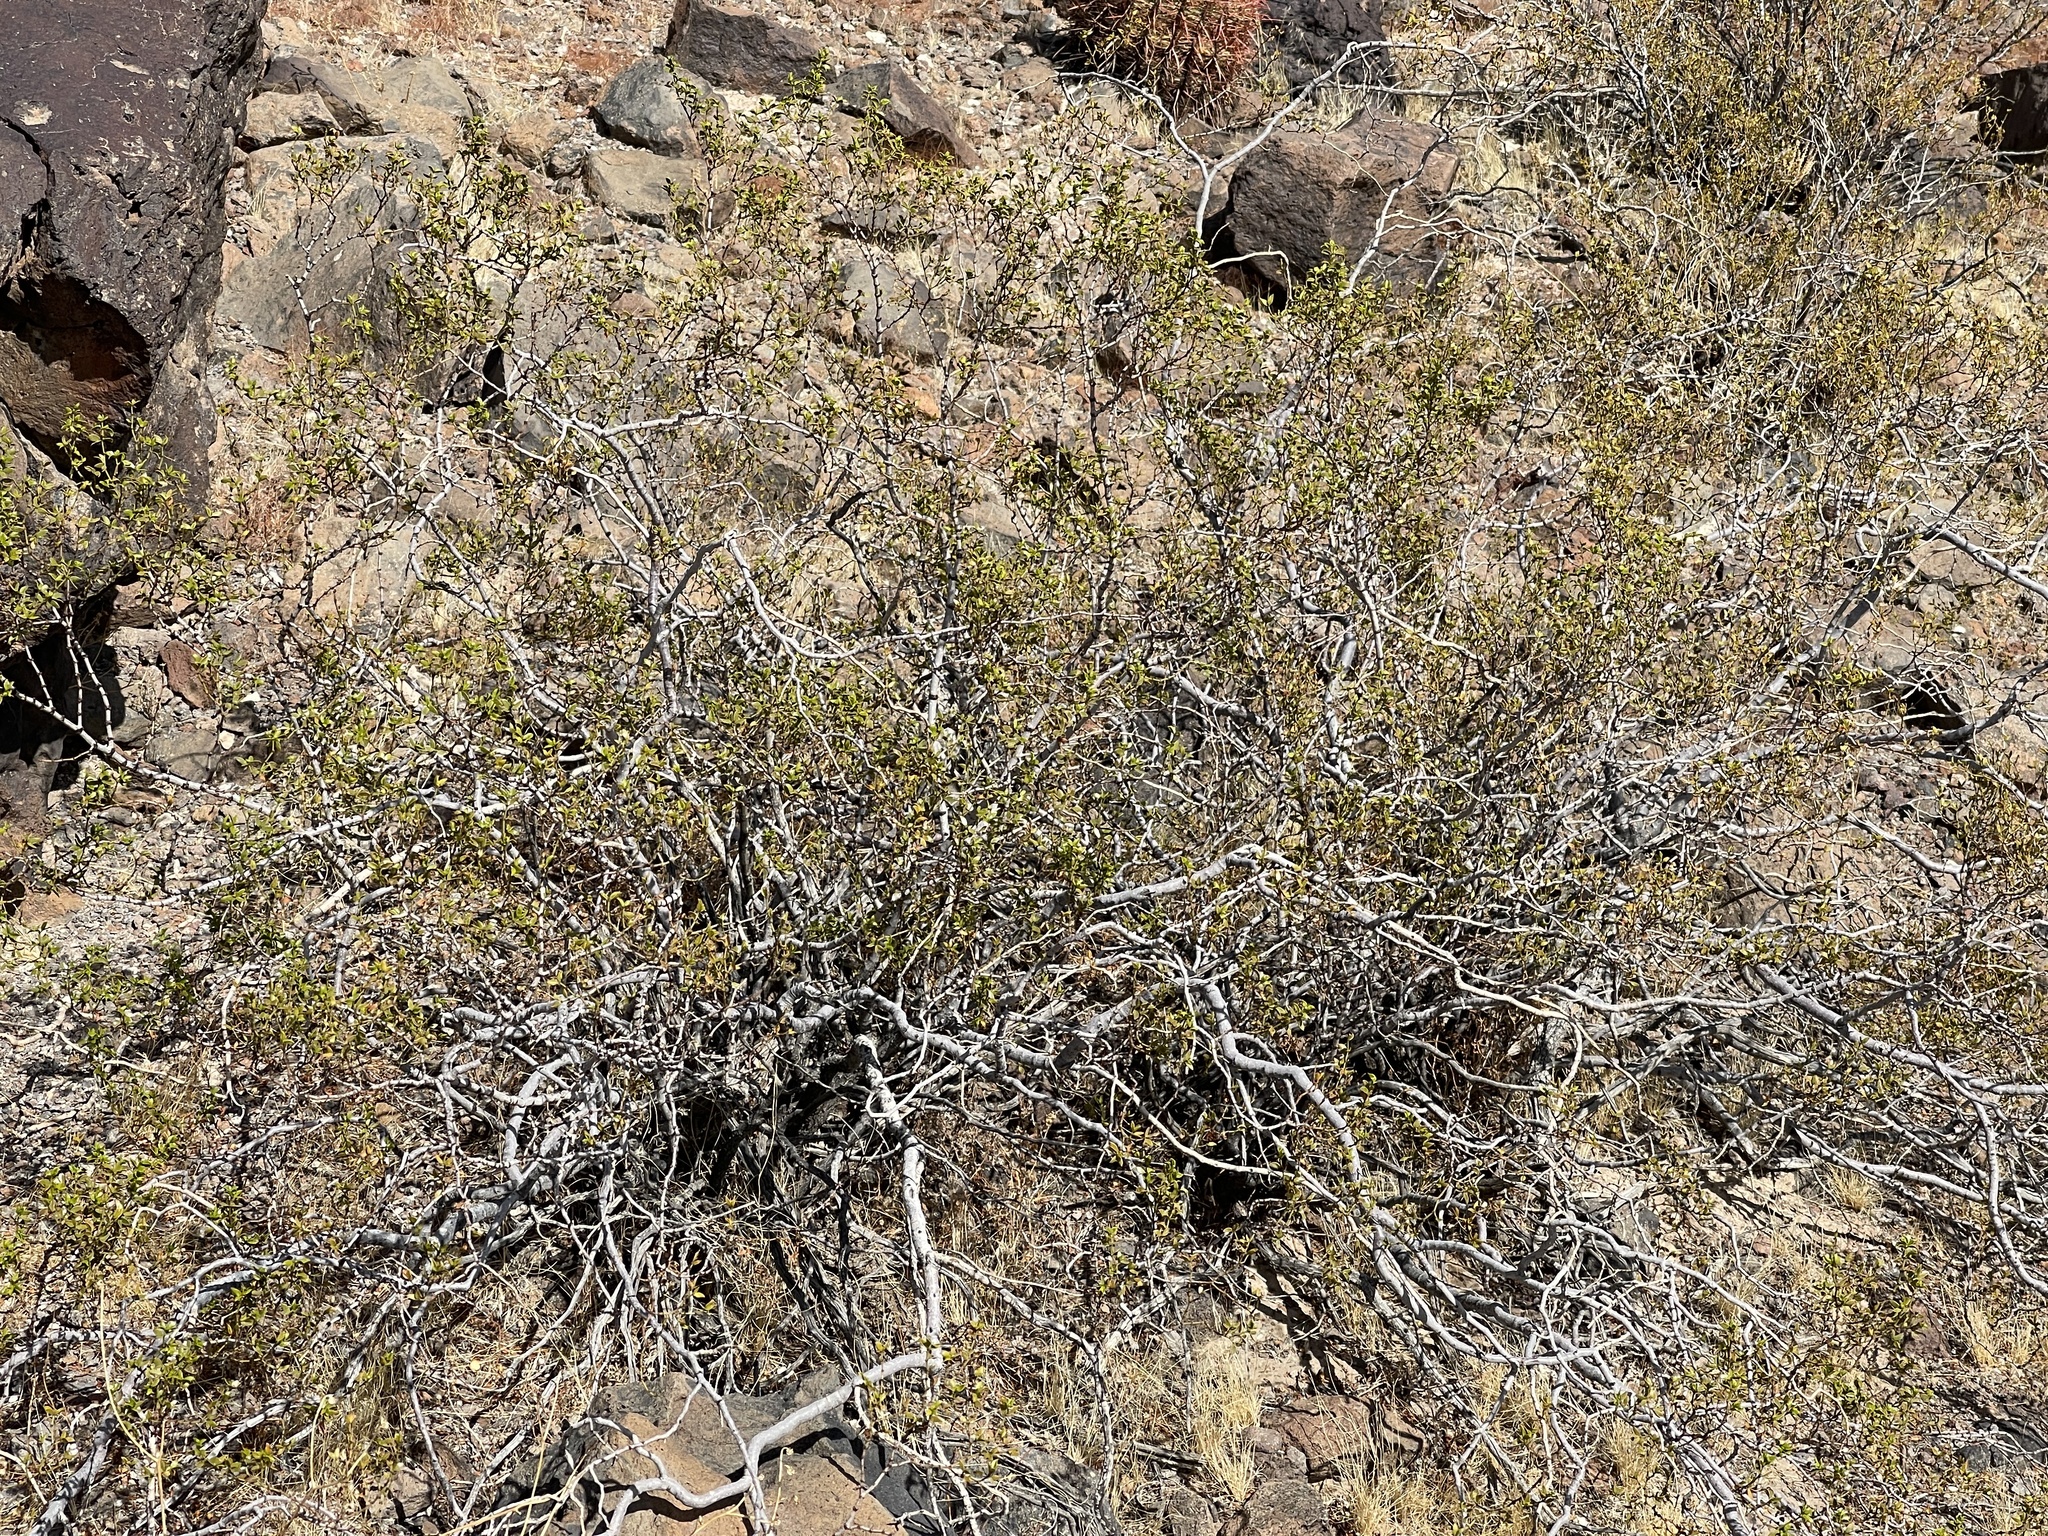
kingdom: Plantae
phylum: Tracheophyta
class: Magnoliopsida
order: Zygophyllales
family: Zygophyllaceae
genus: Larrea
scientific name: Larrea tridentata
